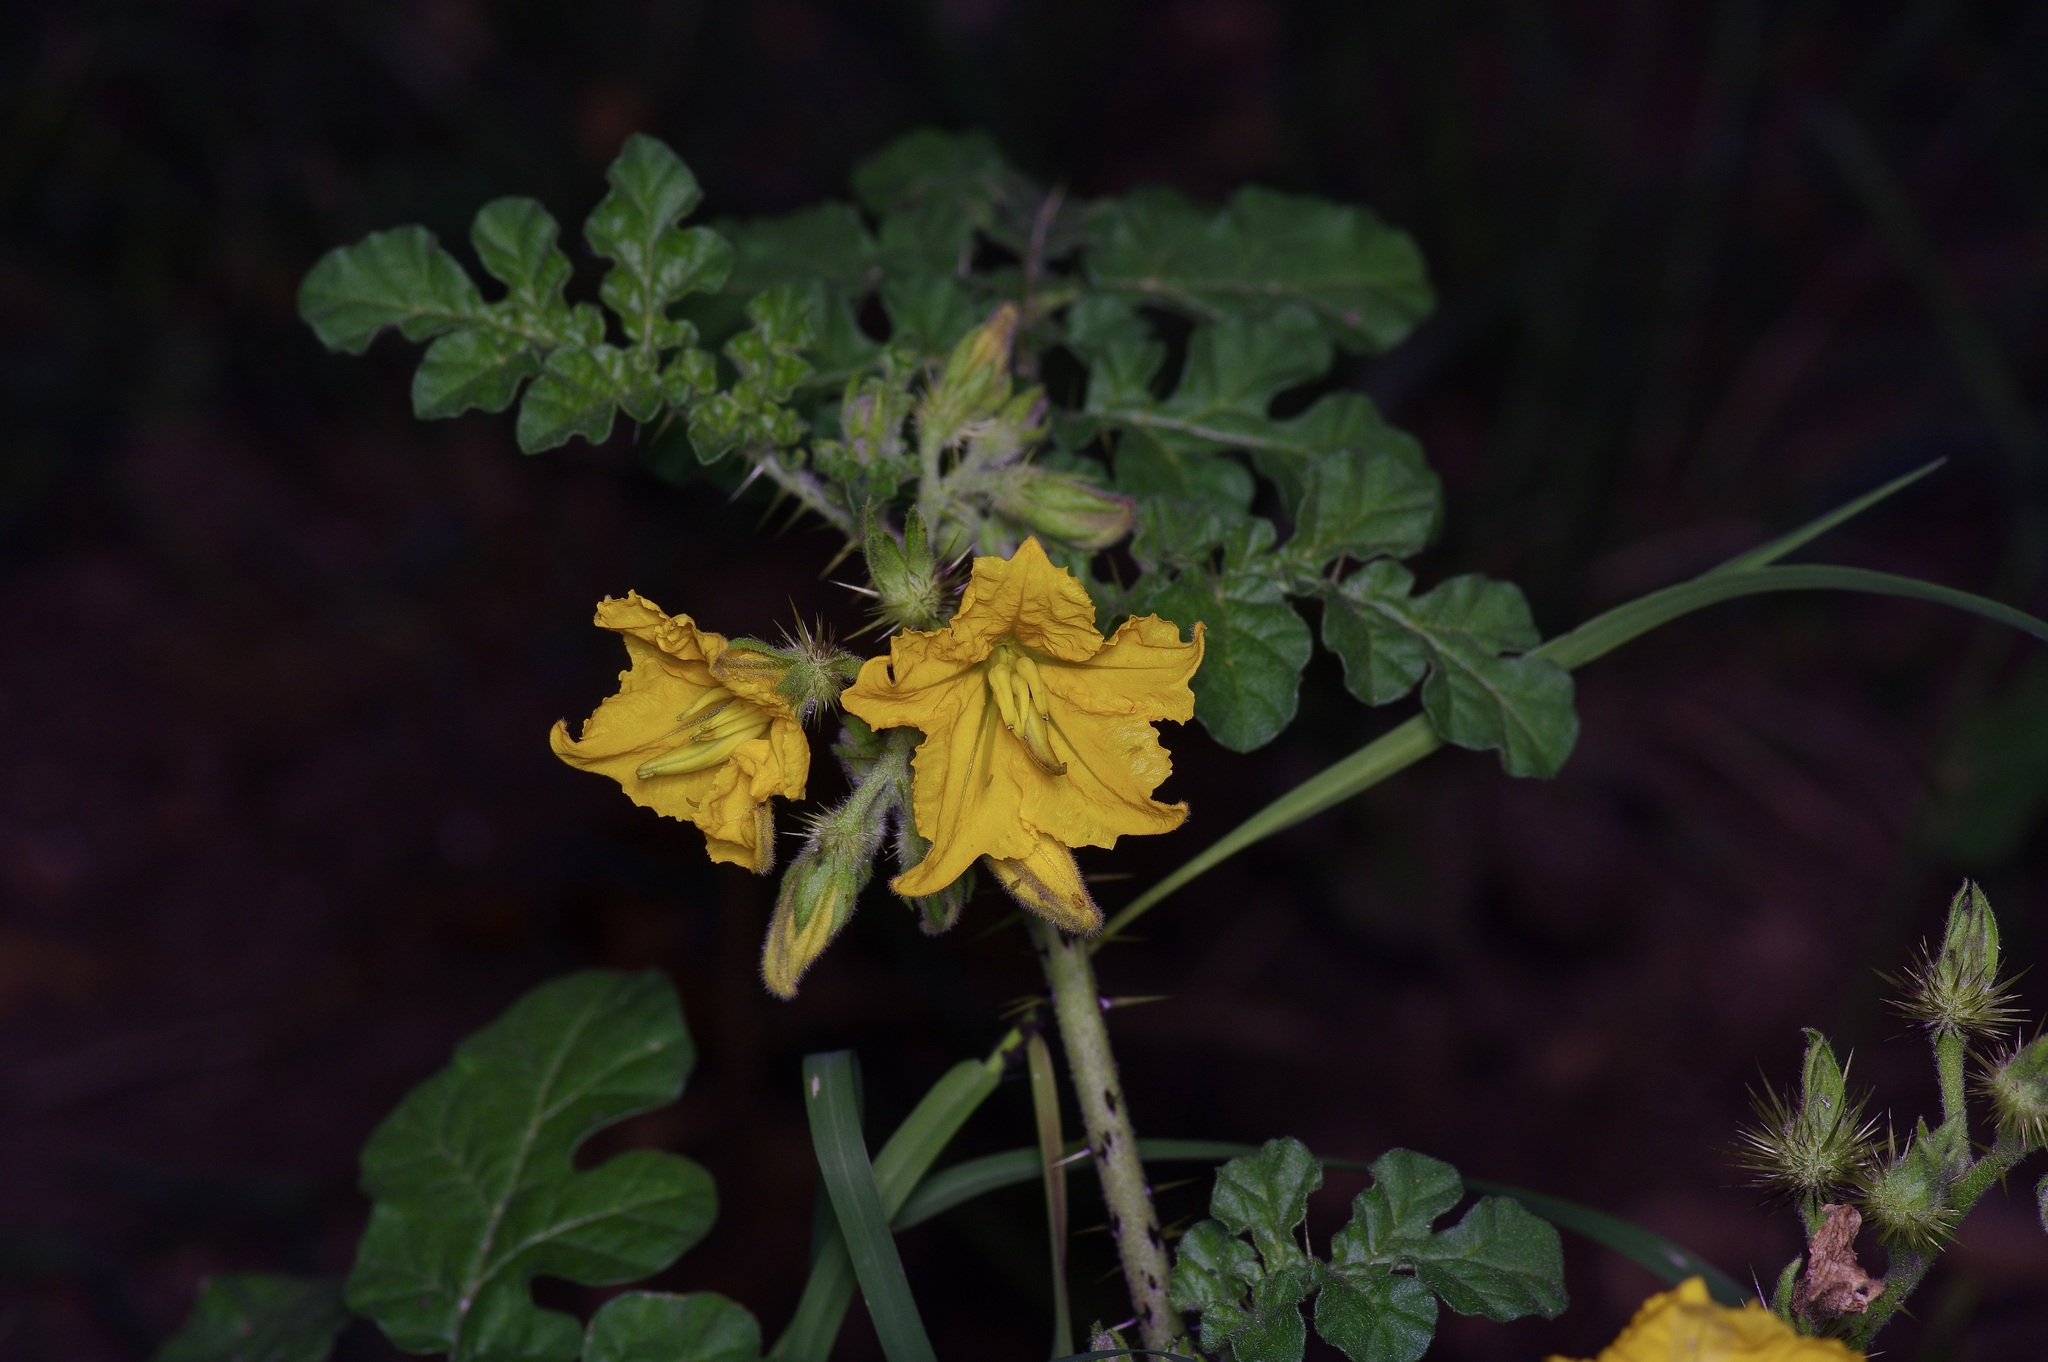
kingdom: Plantae
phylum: Tracheophyta
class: Magnoliopsida
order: Solanales
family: Solanaceae
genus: Solanum
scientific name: Solanum angustifolium
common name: Buffalobur nightshade
